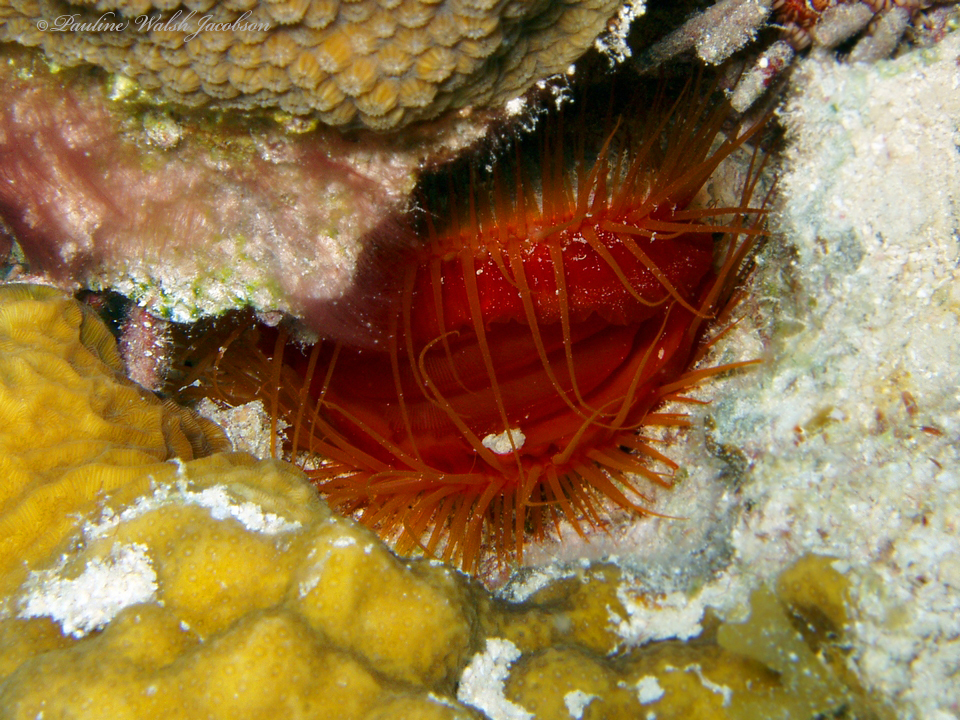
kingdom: Animalia
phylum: Mollusca
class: Bivalvia
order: Limida
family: Limidae
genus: Ctenoides
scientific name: Ctenoides scaber
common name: Rough fileclam
